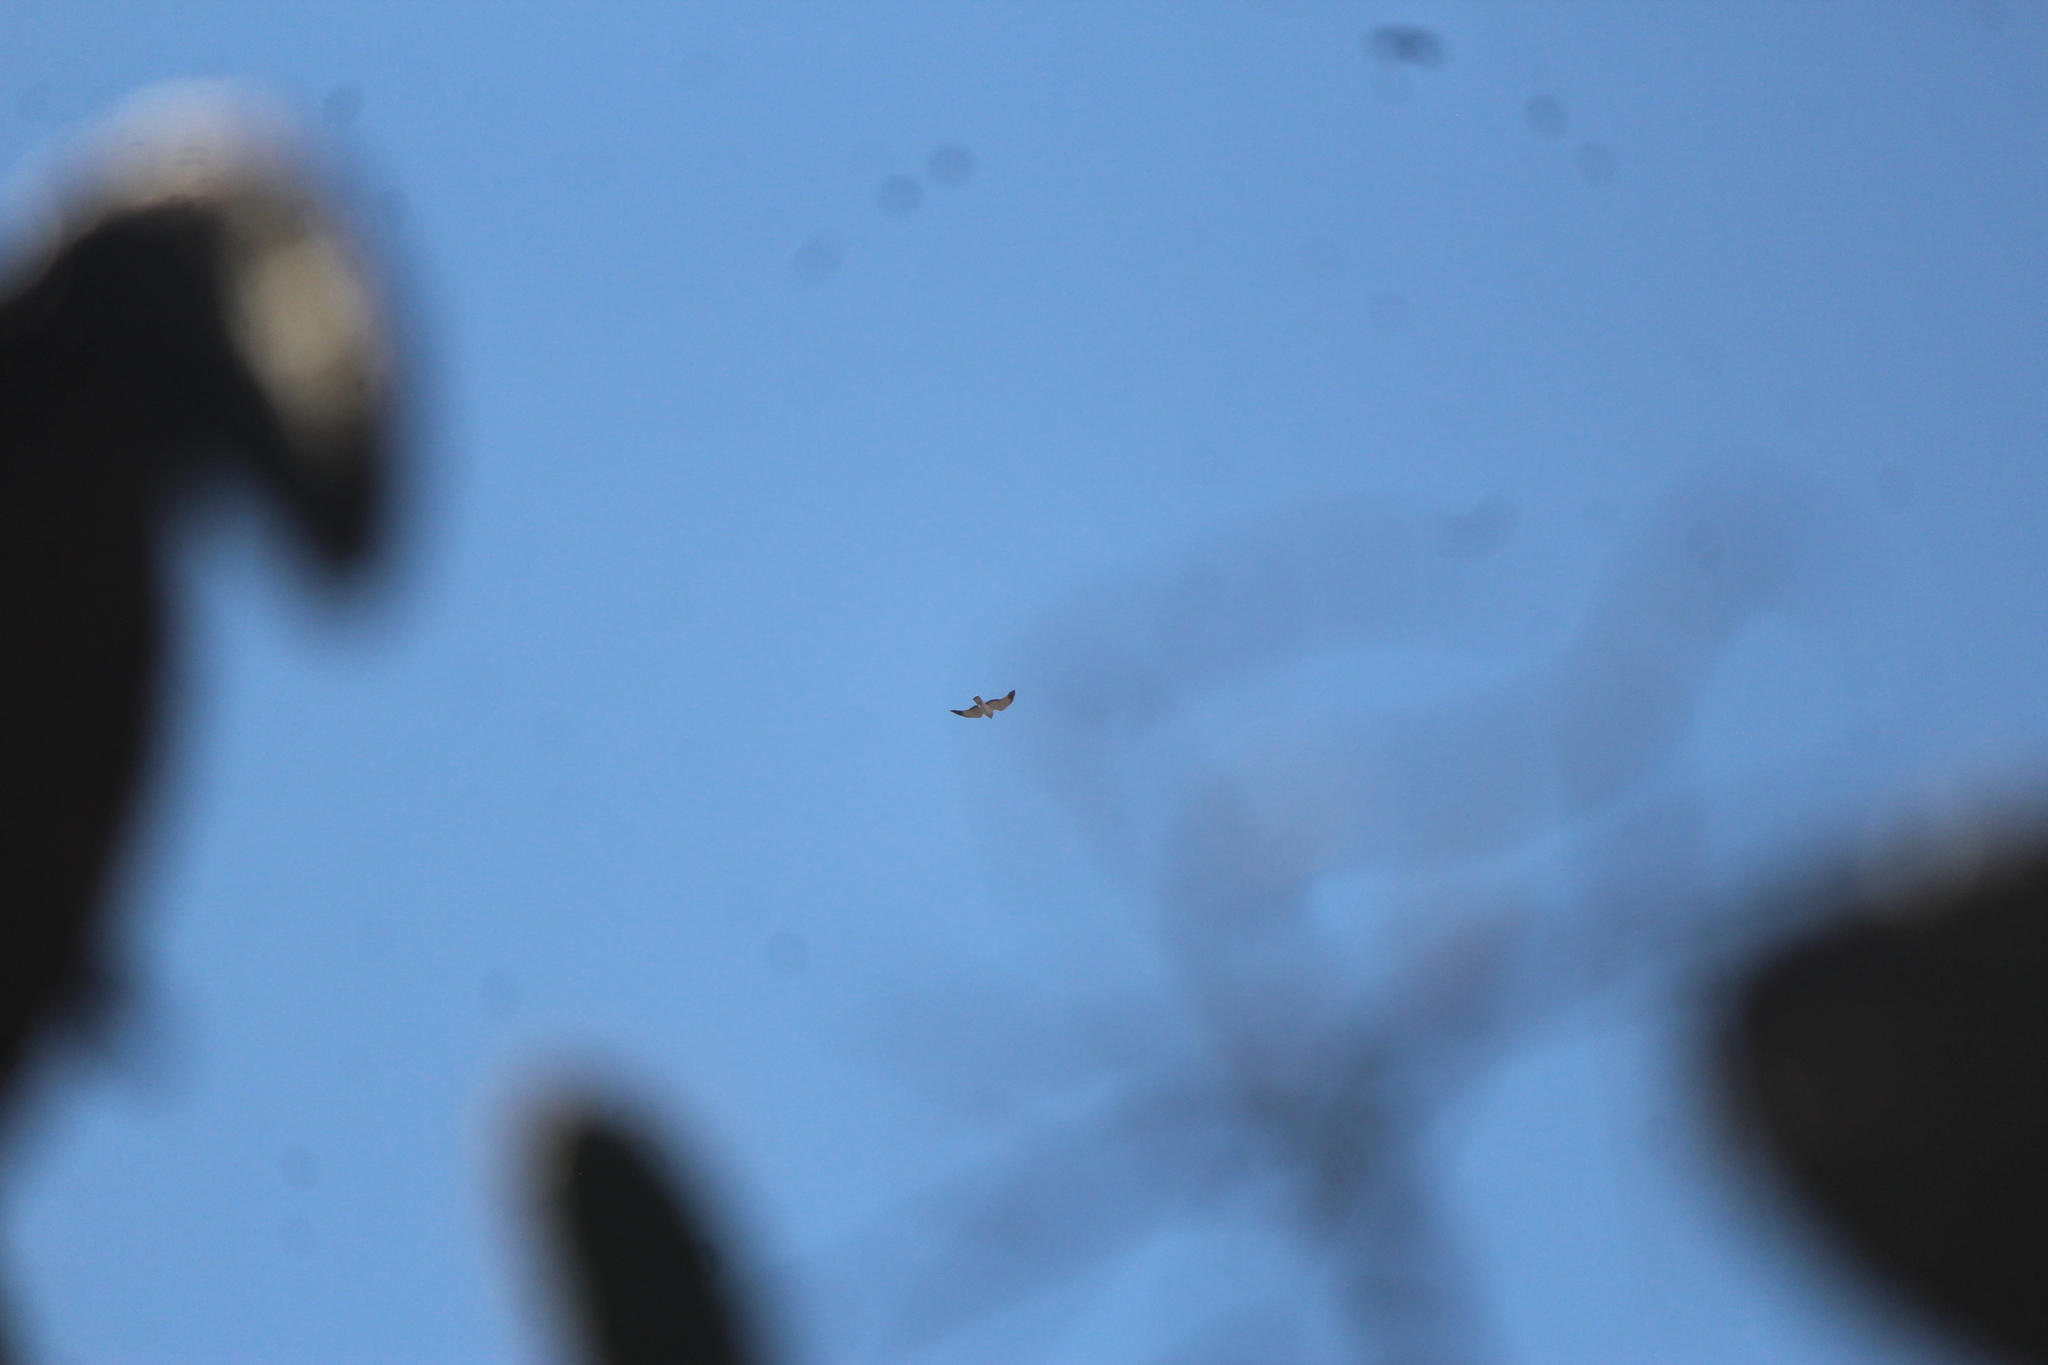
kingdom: Animalia
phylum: Chordata
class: Aves
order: Accipitriformes
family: Accipitridae
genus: Circus
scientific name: Circus cyaneus
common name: Hen harrier
